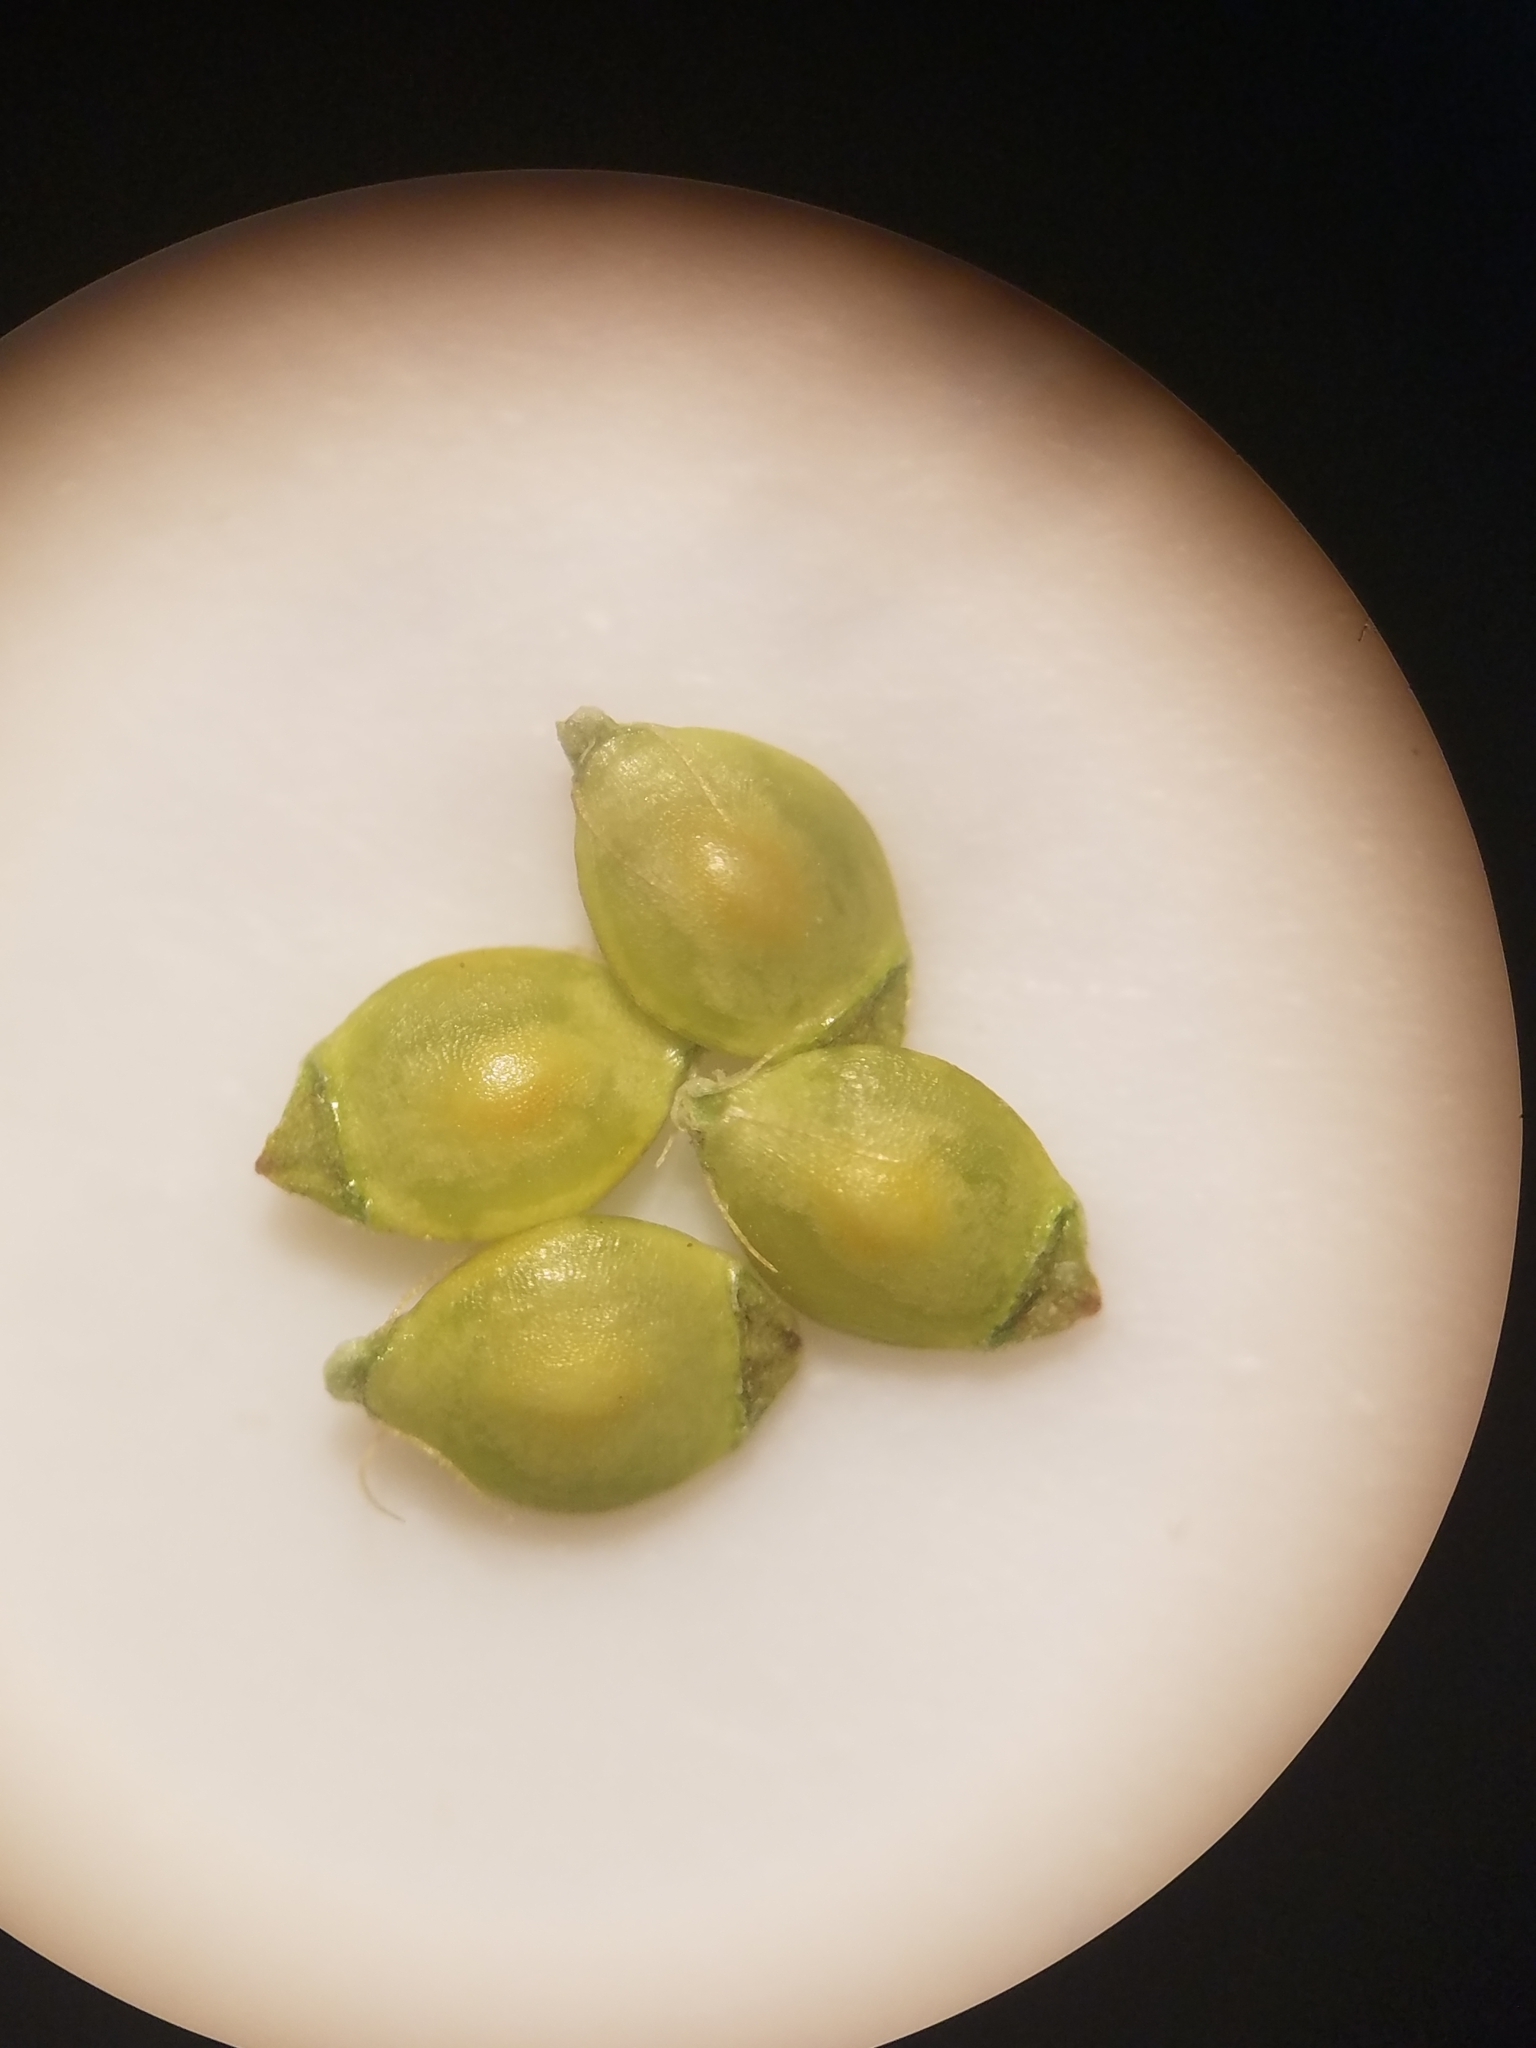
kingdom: Plantae
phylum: Tracheophyta
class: Liliopsida
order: Poales
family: Cyperaceae
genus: Rhynchospora
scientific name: Rhynchospora ciliaris
